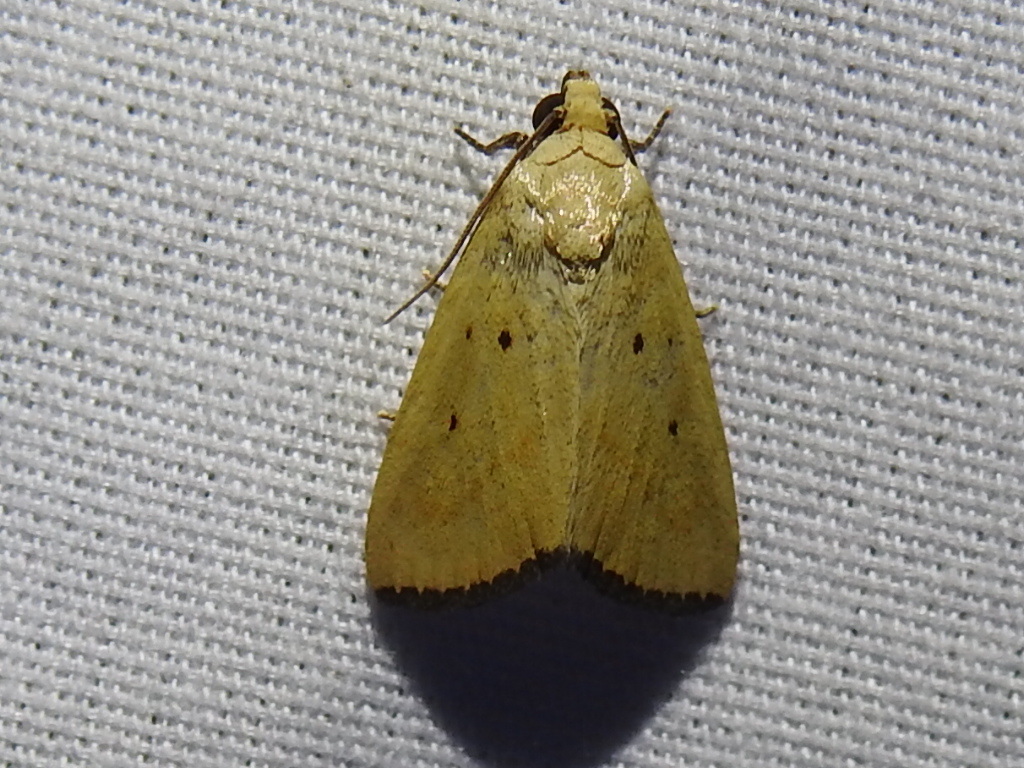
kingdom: Animalia
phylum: Arthropoda
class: Insecta
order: Lepidoptera
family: Noctuidae
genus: Marimatha
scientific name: Marimatha nigrofimbria
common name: Black-bordered lemon moth
